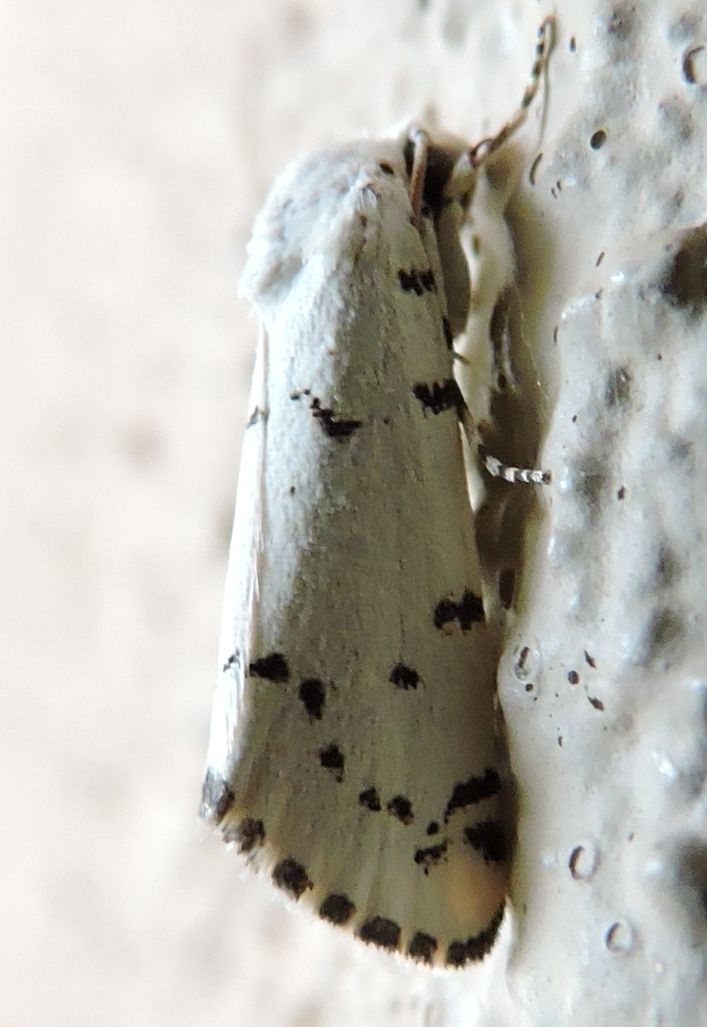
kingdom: Animalia
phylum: Arthropoda
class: Insecta
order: Lepidoptera
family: Noctuidae
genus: Grotella
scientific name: Grotella binda
